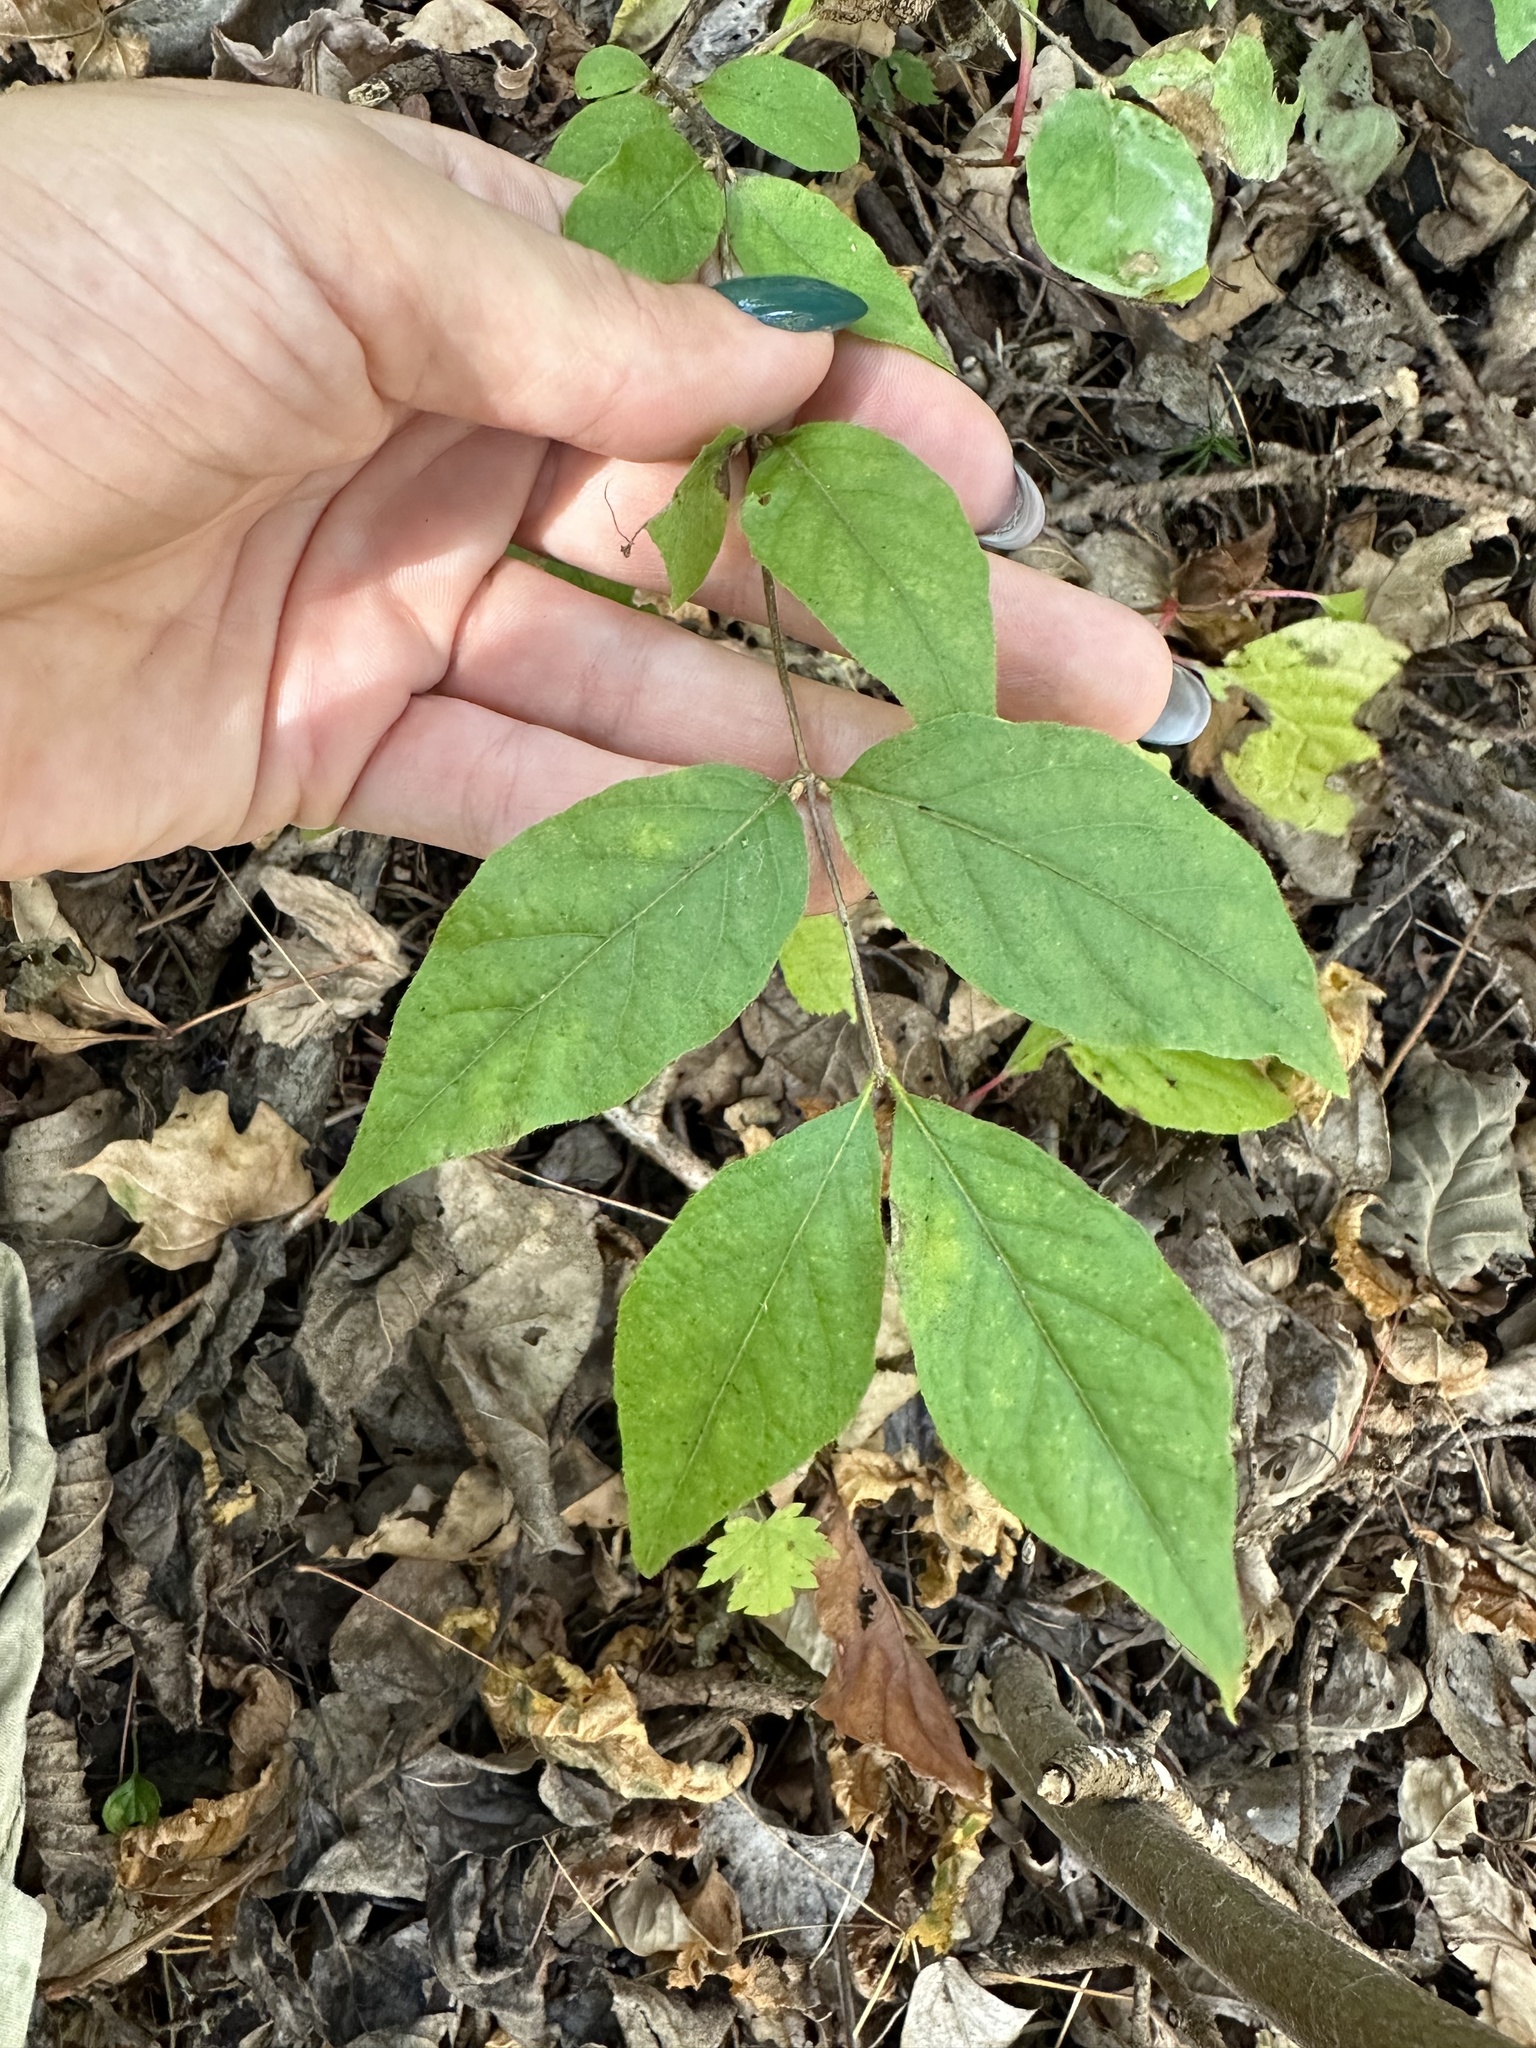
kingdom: Plantae
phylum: Tracheophyta
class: Magnoliopsida
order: Dipsacales
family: Caprifoliaceae
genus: Lonicera
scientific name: Lonicera maackii
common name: Amur honeysuckle
